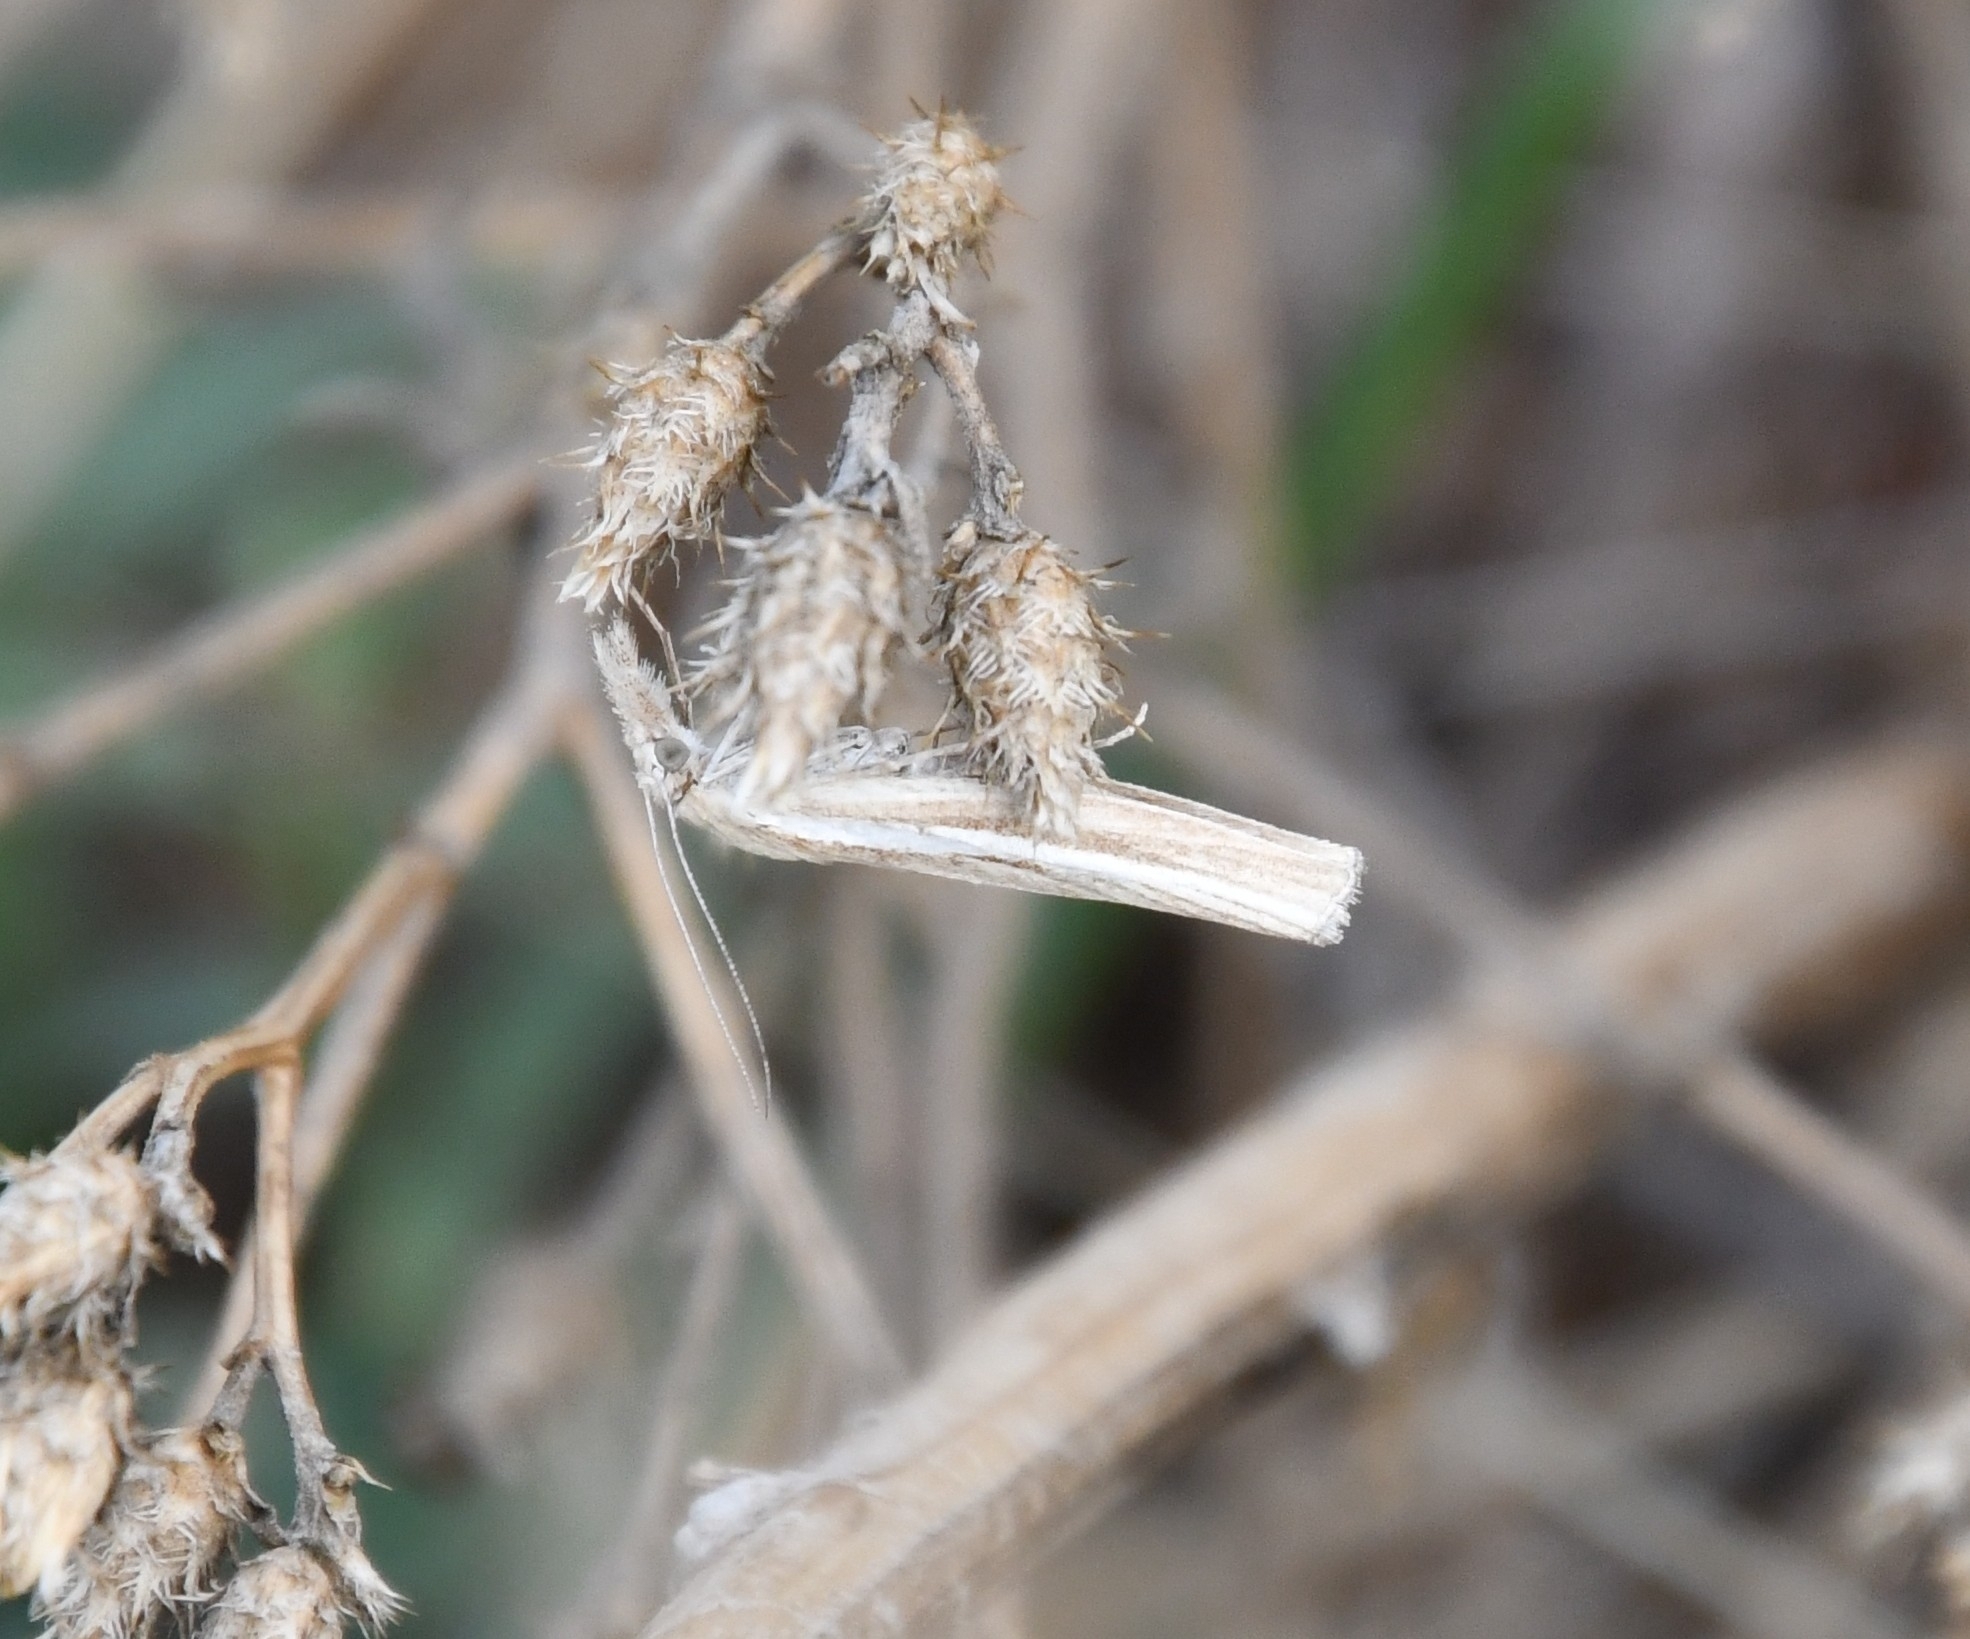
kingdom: Animalia
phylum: Arthropoda
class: Insecta
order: Lepidoptera
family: Crambidae
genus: Agriphila
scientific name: Agriphila tristellus
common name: Common grass-veneer
